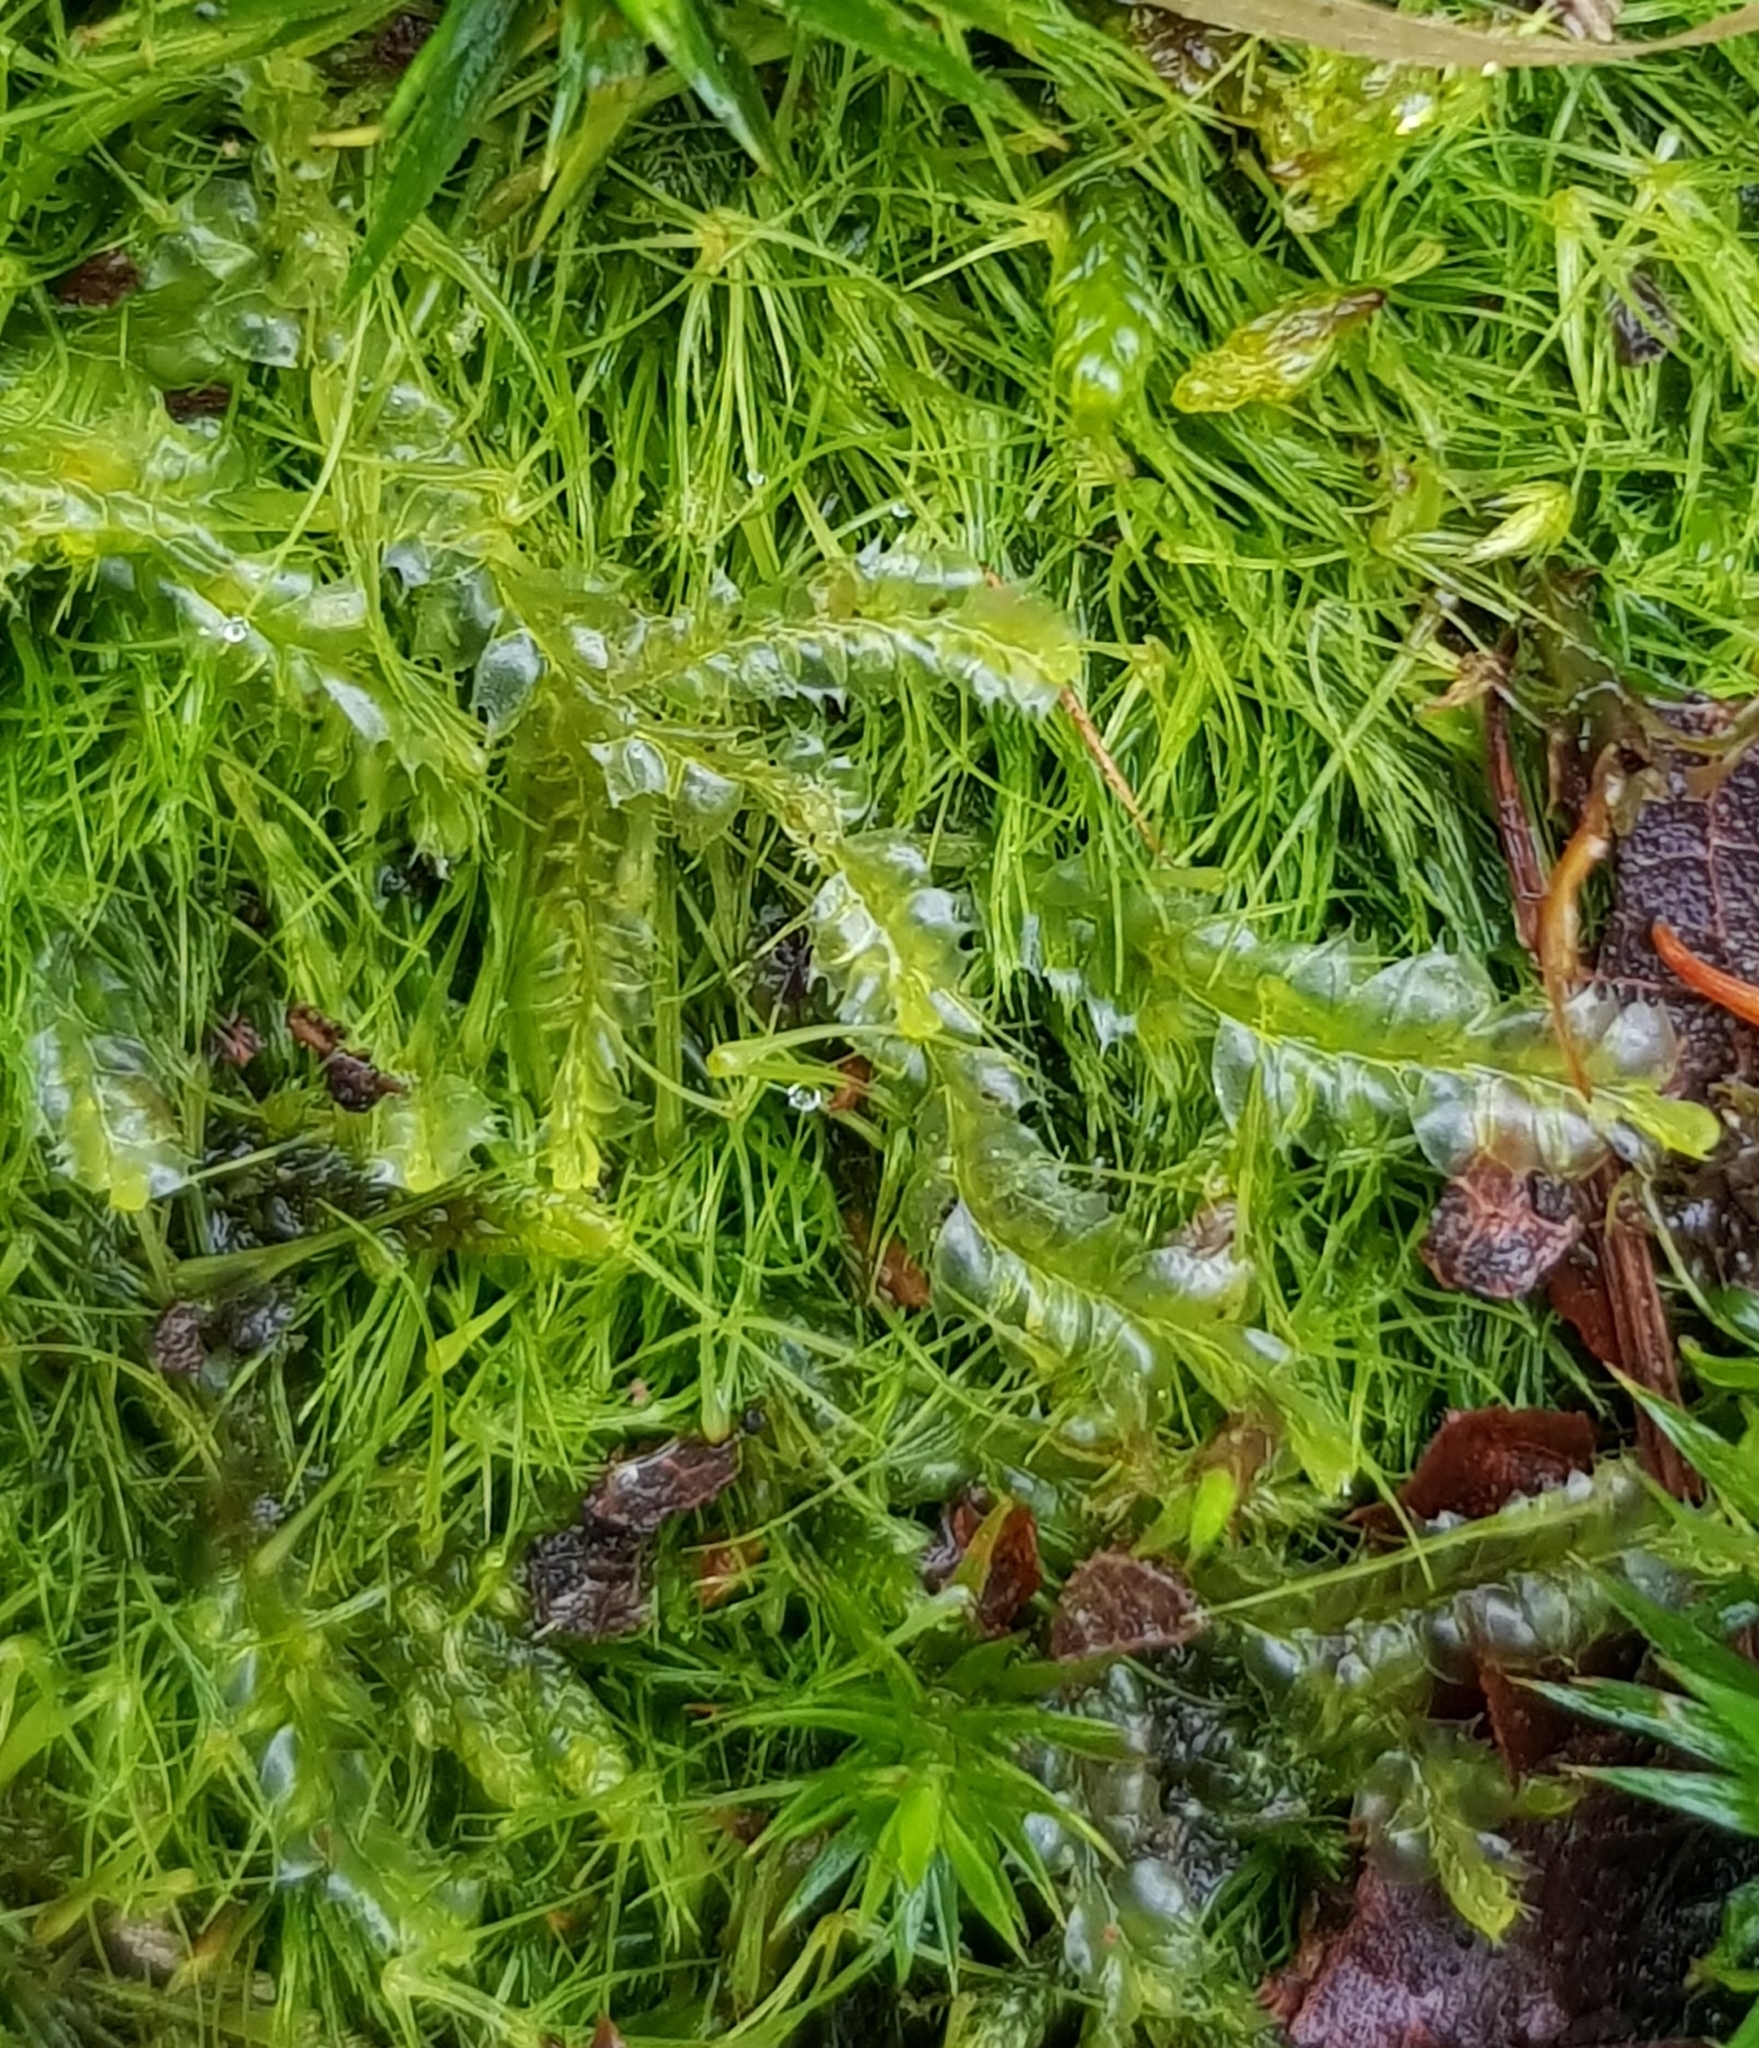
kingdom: Plantae
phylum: Marchantiophyta
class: Jungermanniopsida
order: Jungermanniales
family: Lophocoleaceae
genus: Lophocolea
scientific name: Lophocolea bidentata
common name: Bifid crestwort
